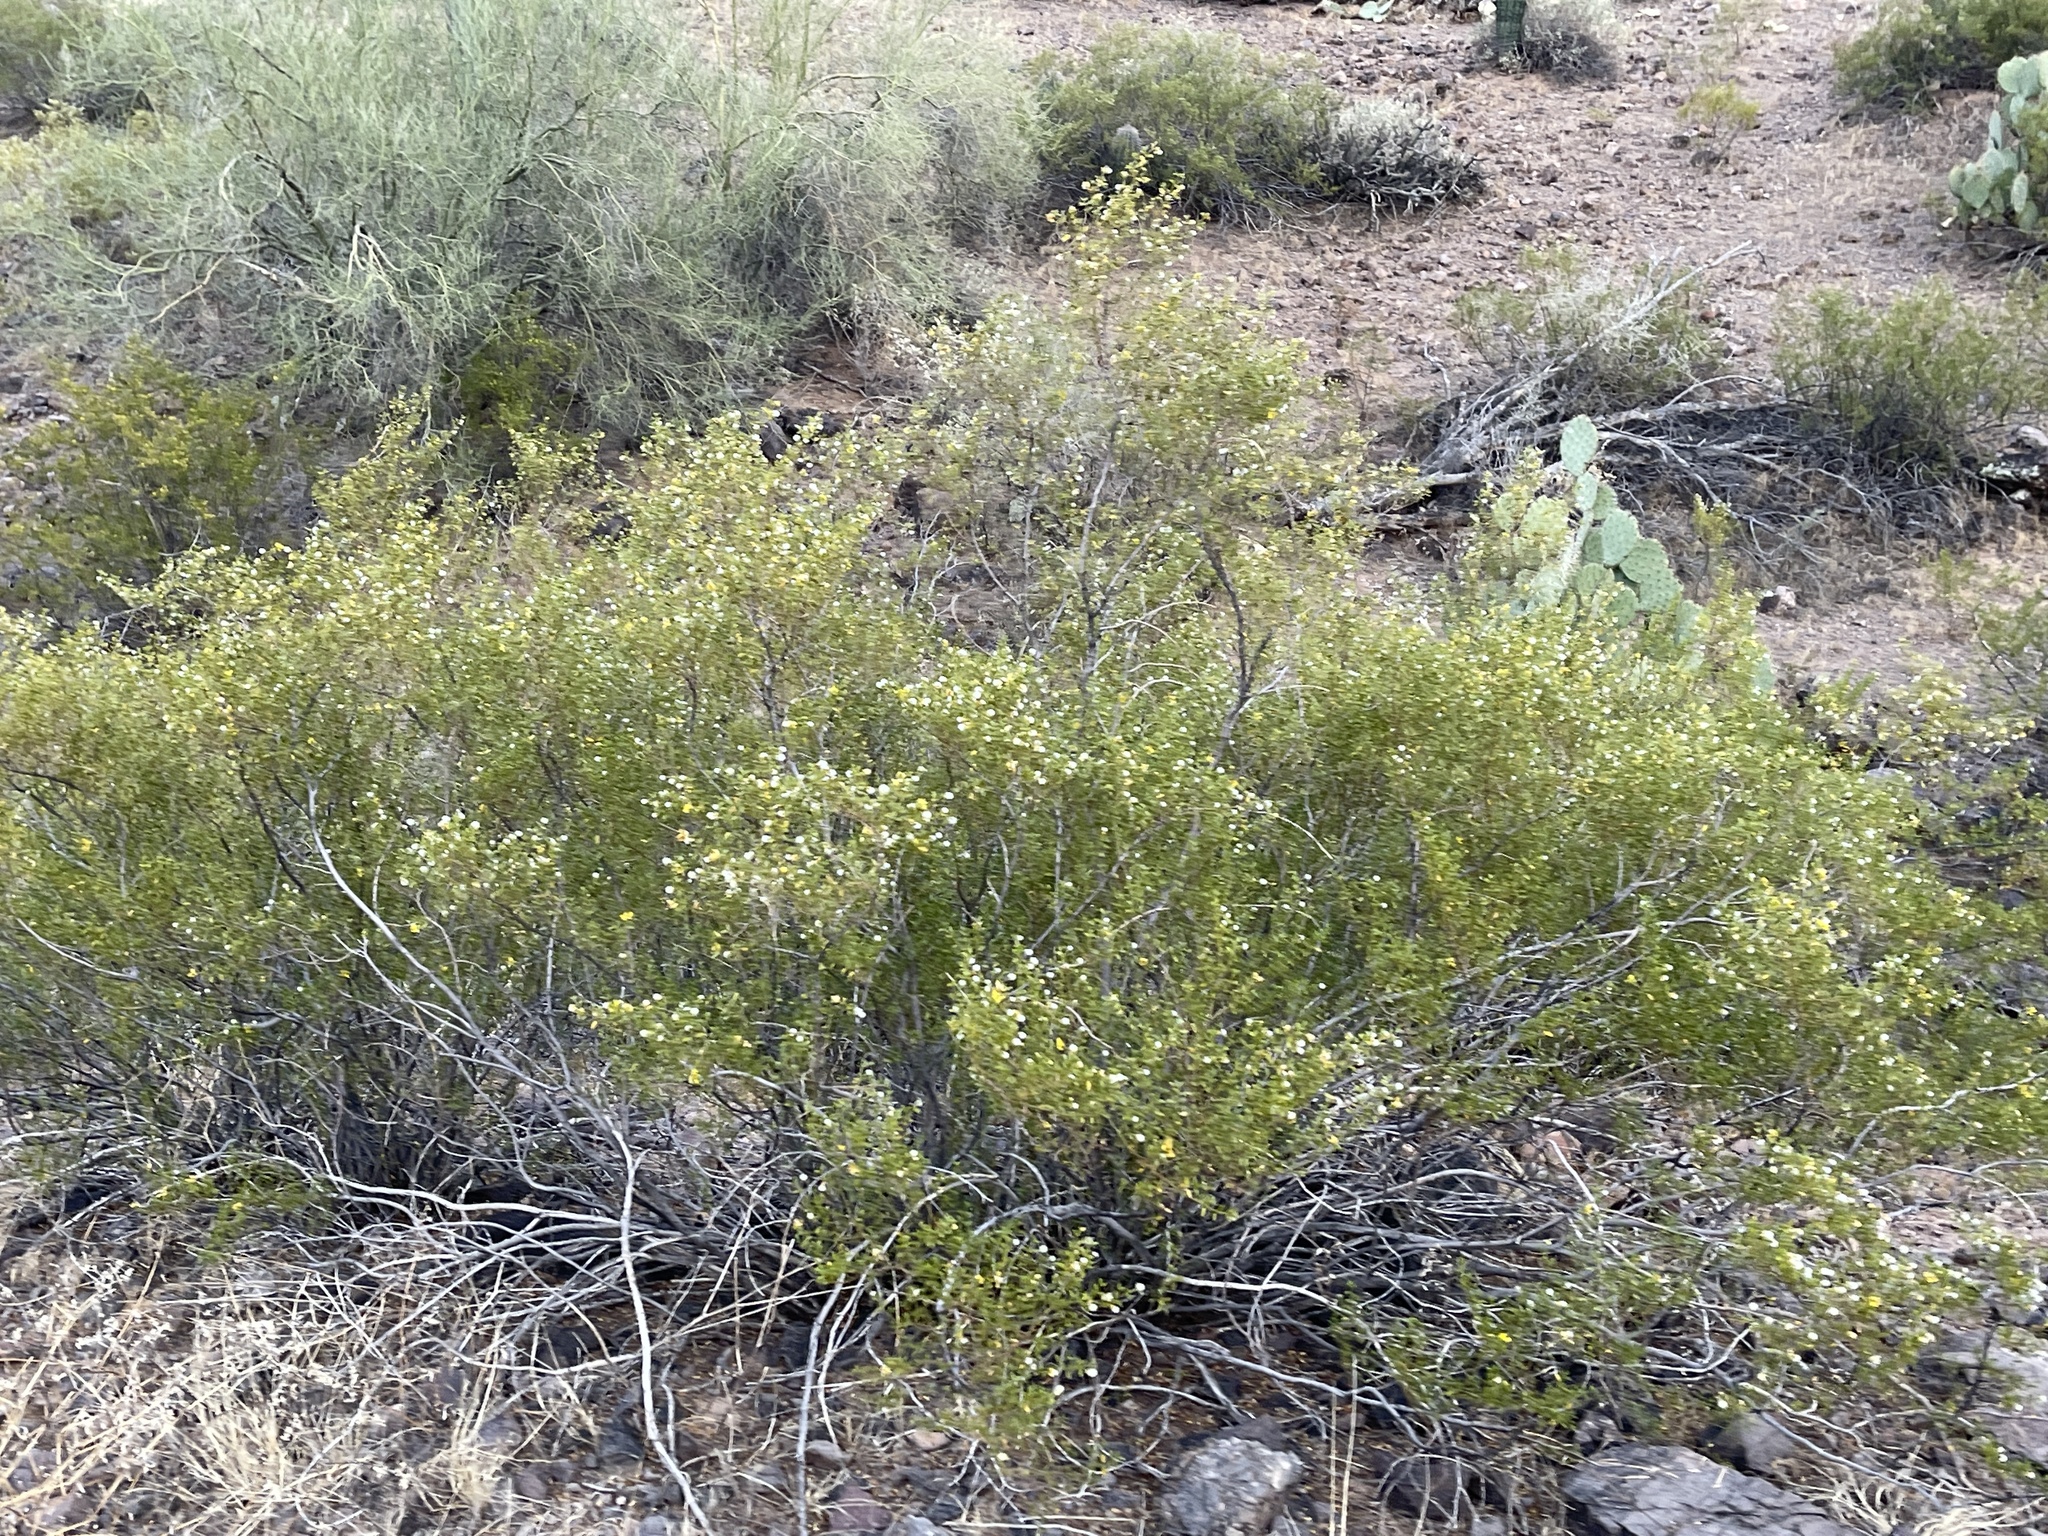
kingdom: Plantae
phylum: Tracheophyta
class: Magnoliopsida
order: Zygophyllales
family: Zygophyllaceae
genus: Larrea
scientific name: Larrea tridentata
